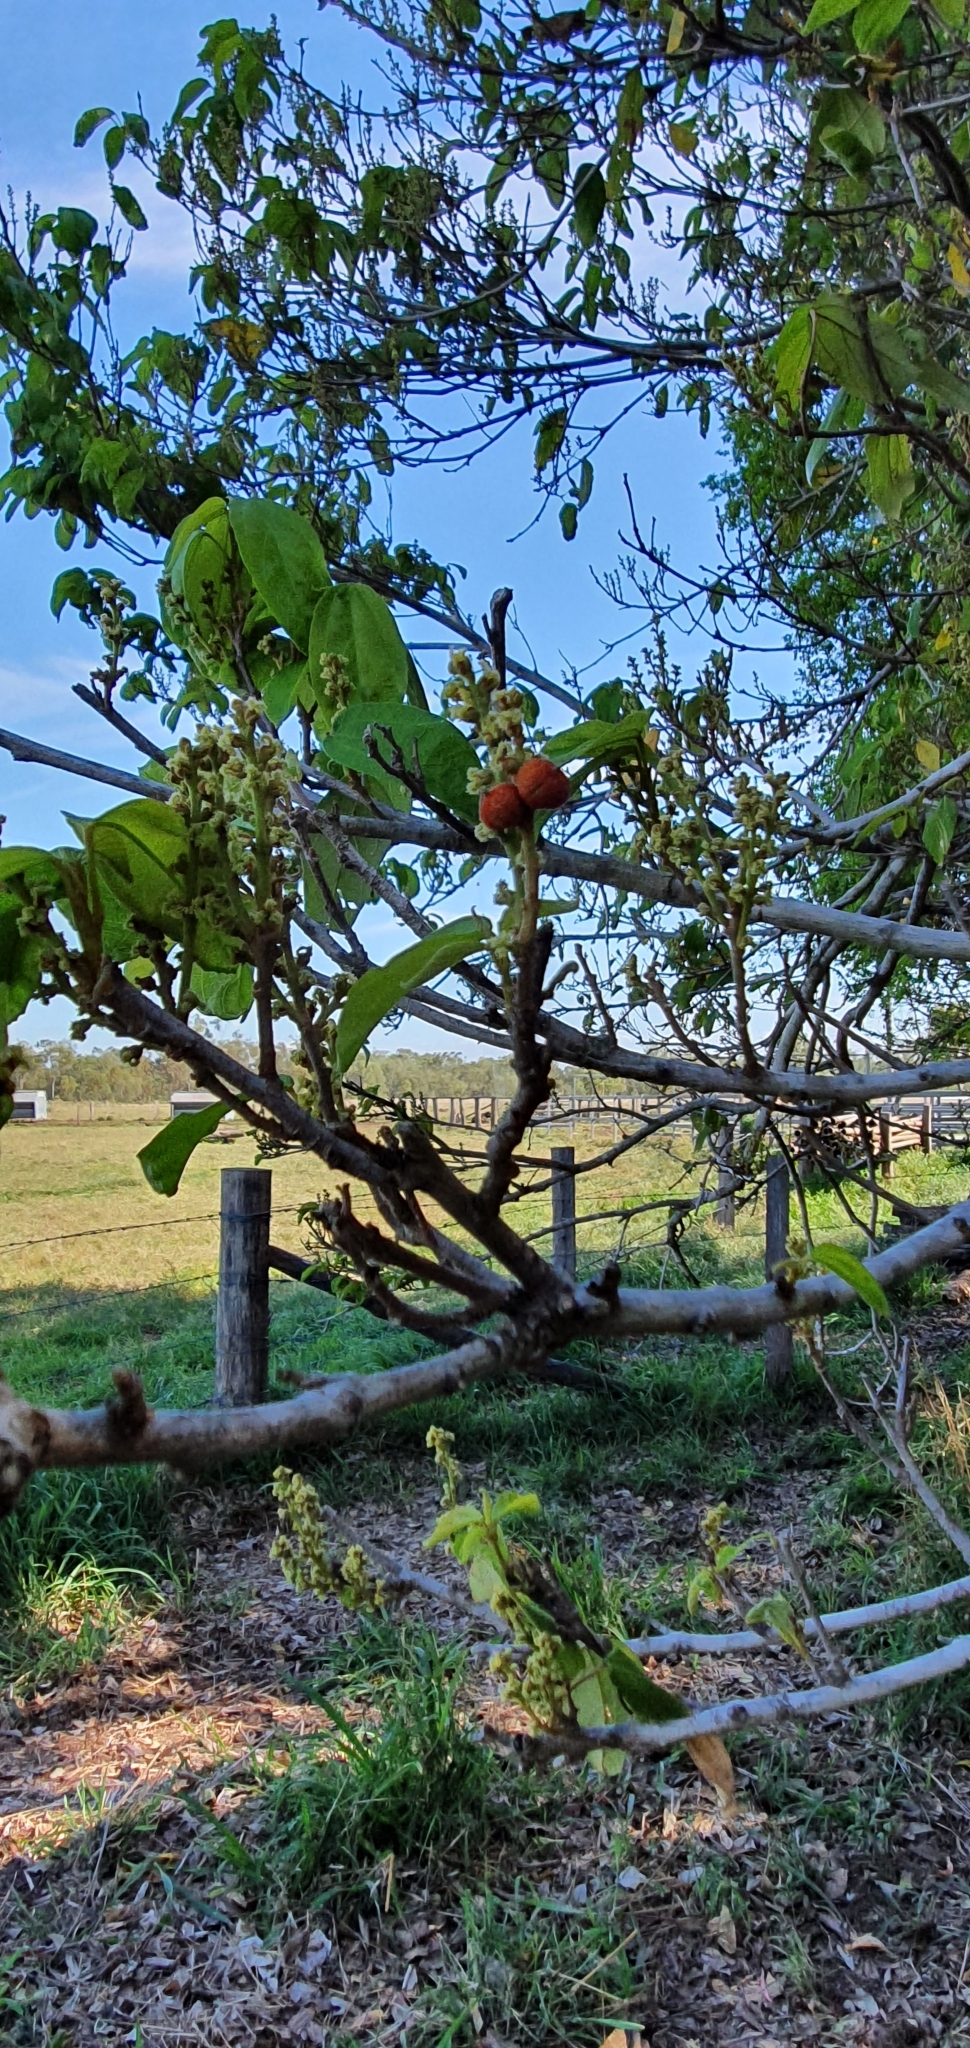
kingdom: Plantae
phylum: Tracheophyta
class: Magnoliopsida
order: Malpighiales
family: Euphorbiaceae
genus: Mallotus
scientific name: Mallotus philippensis
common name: Kamala tree
